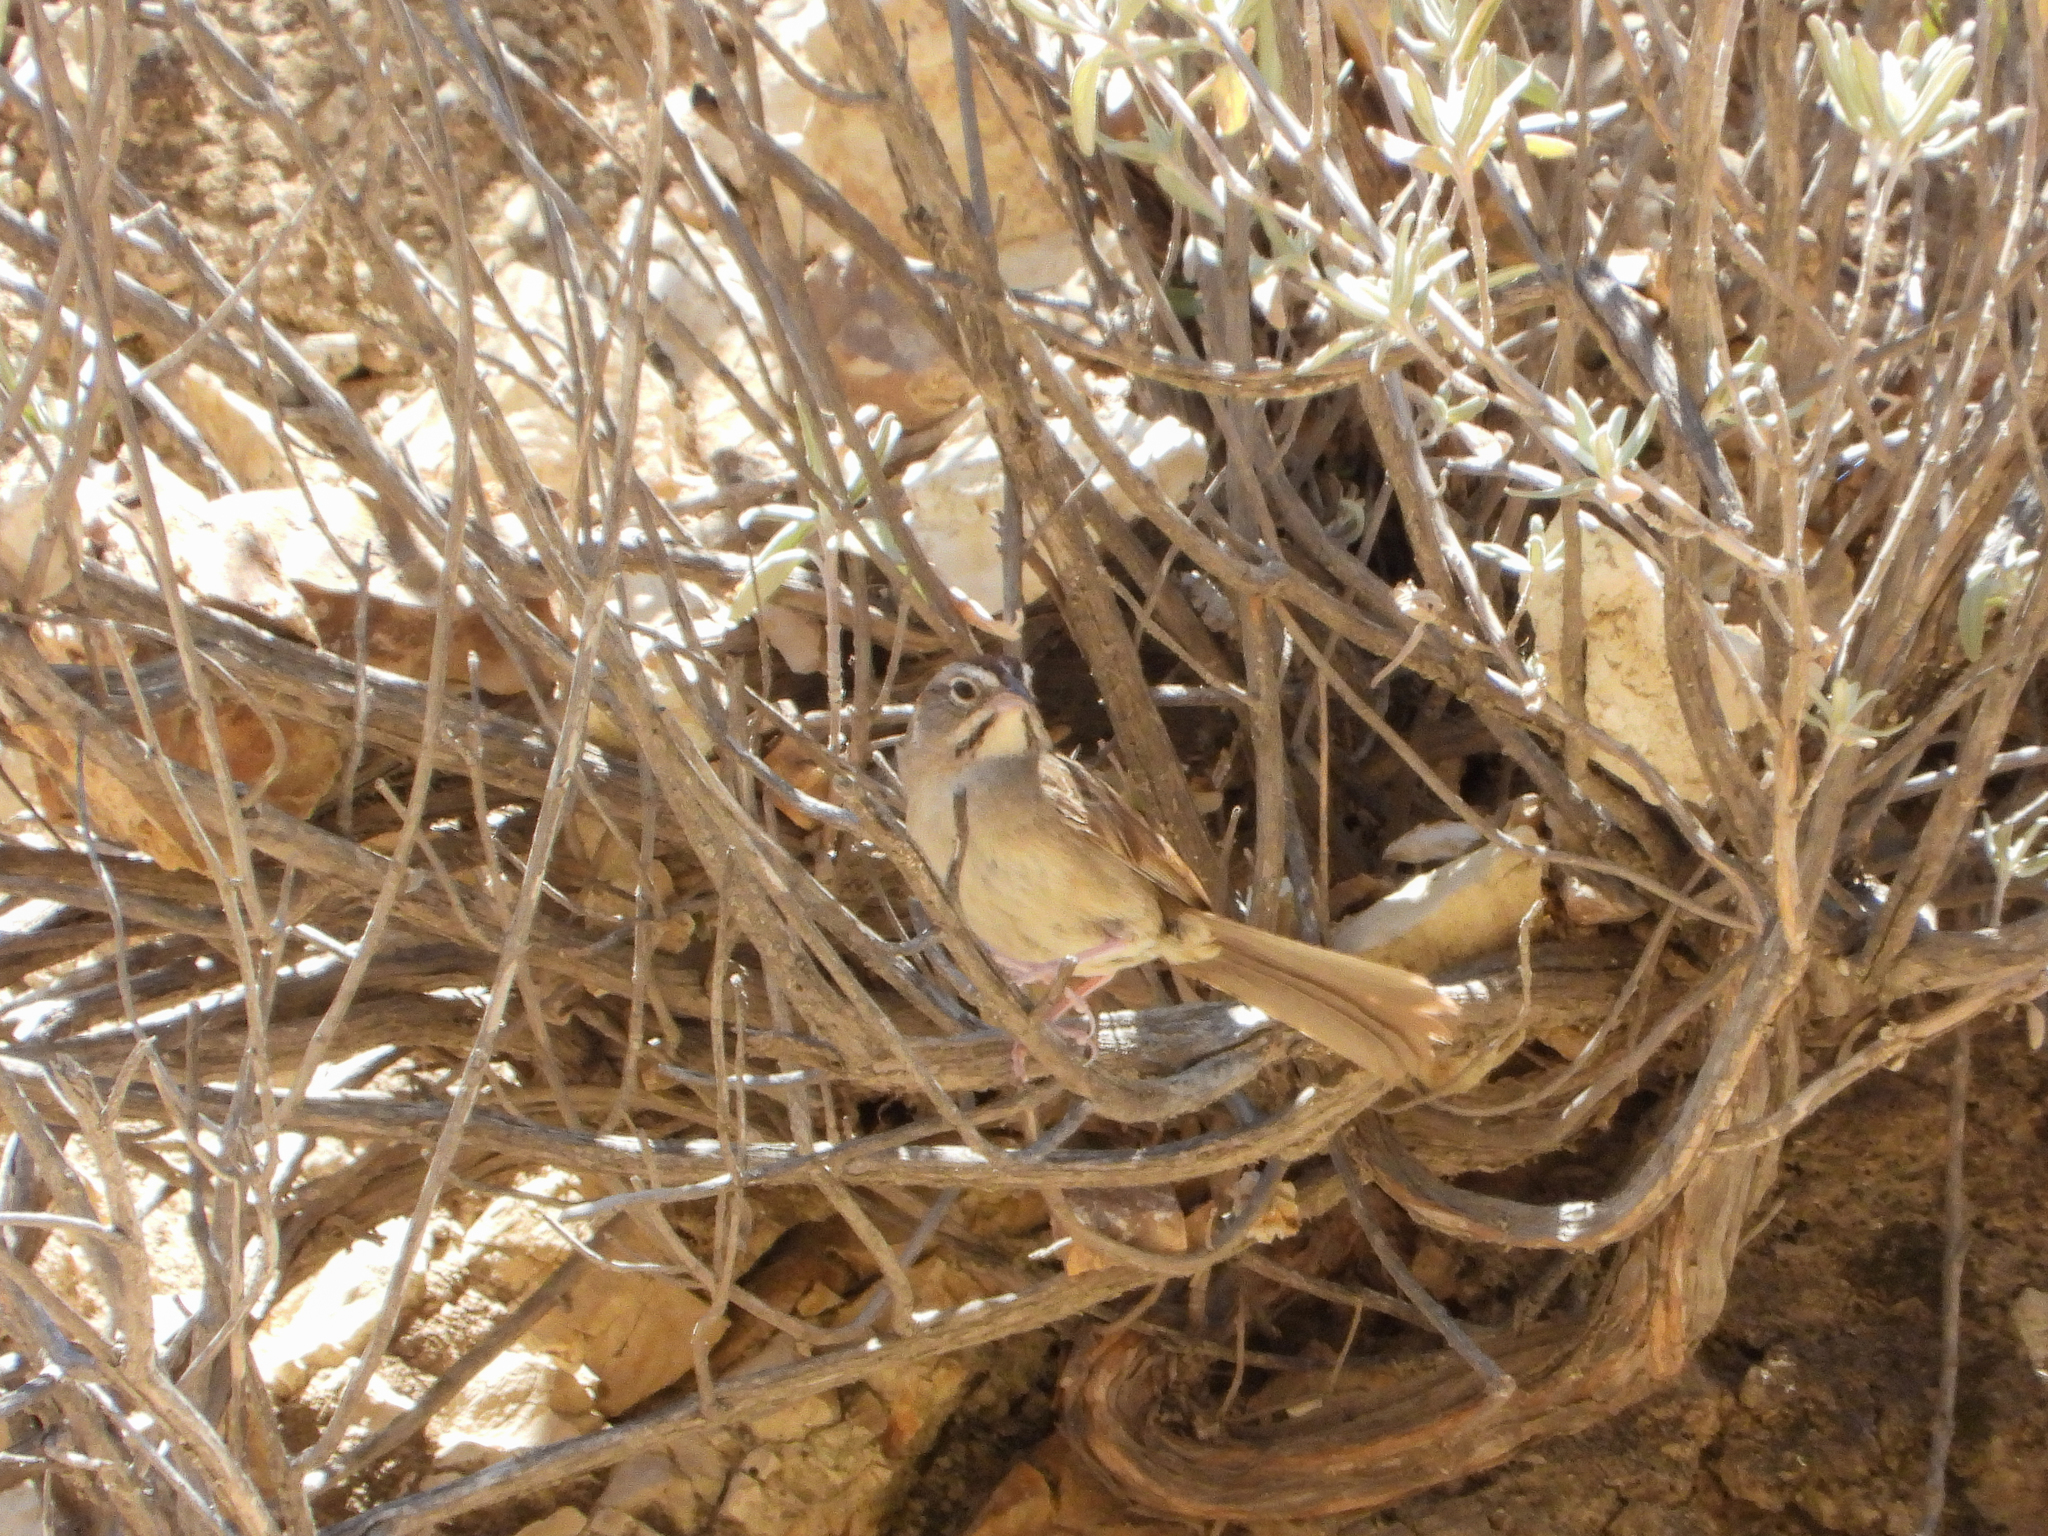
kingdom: Animalia
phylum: Chordata
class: Aves
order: Passeriformes
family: Passerellidae
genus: Aimophila
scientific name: Aimophila ruficeps
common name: Rufous-crowned sparrow
